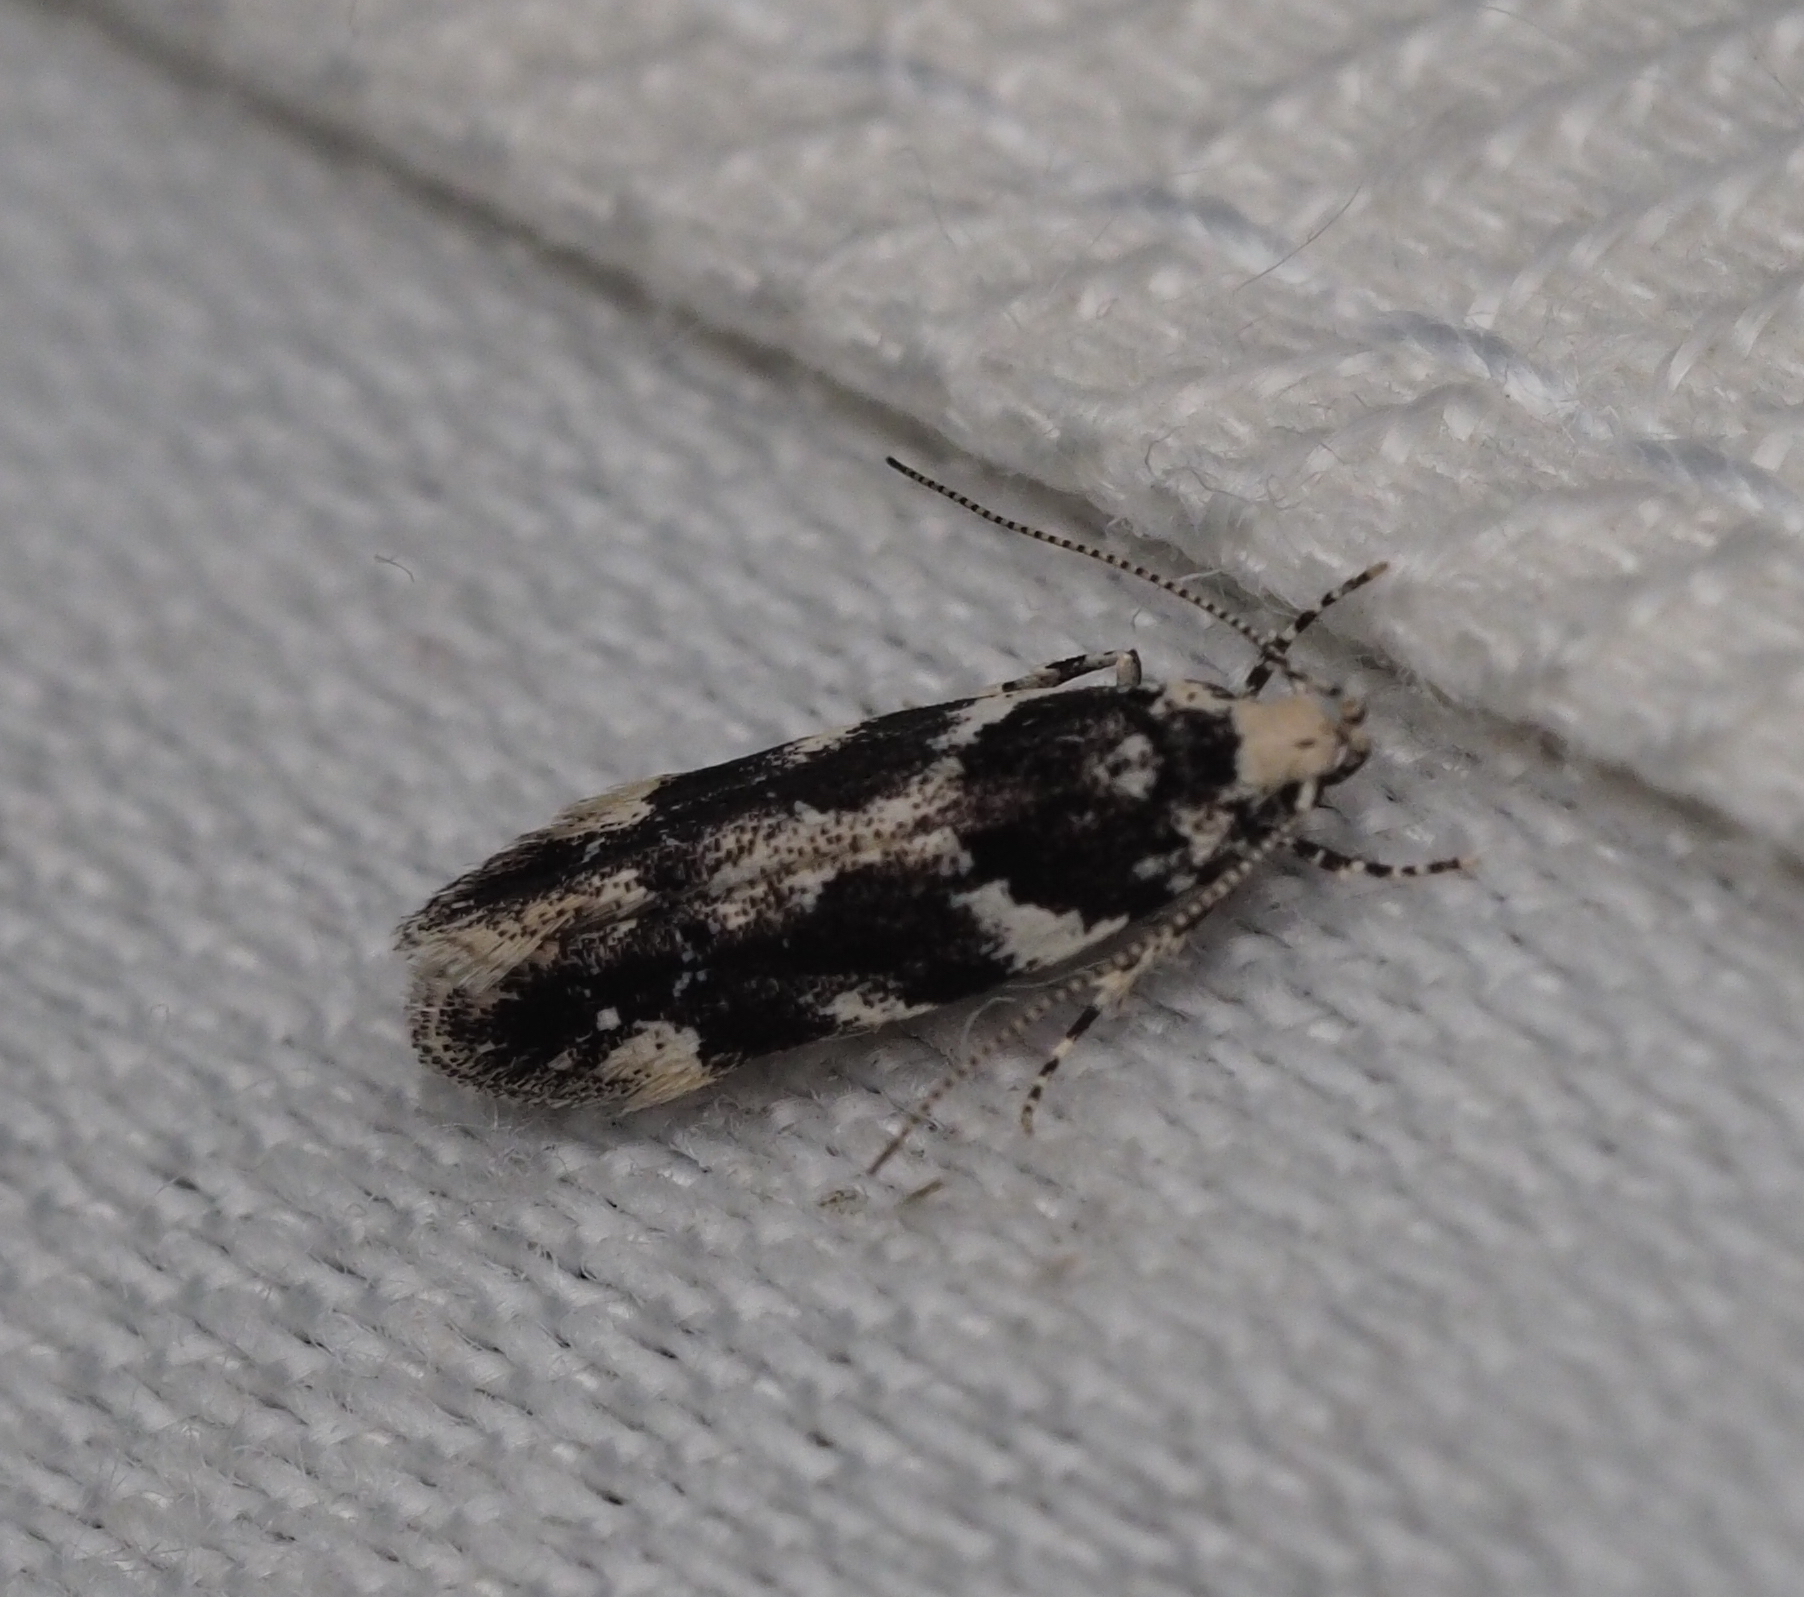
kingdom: Animalia
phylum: Arthropoda
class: Insecta
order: Lepidoptera
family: Gelechiidae
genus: Parachronistis
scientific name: Parachronistis albiceps
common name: Wood groundling
